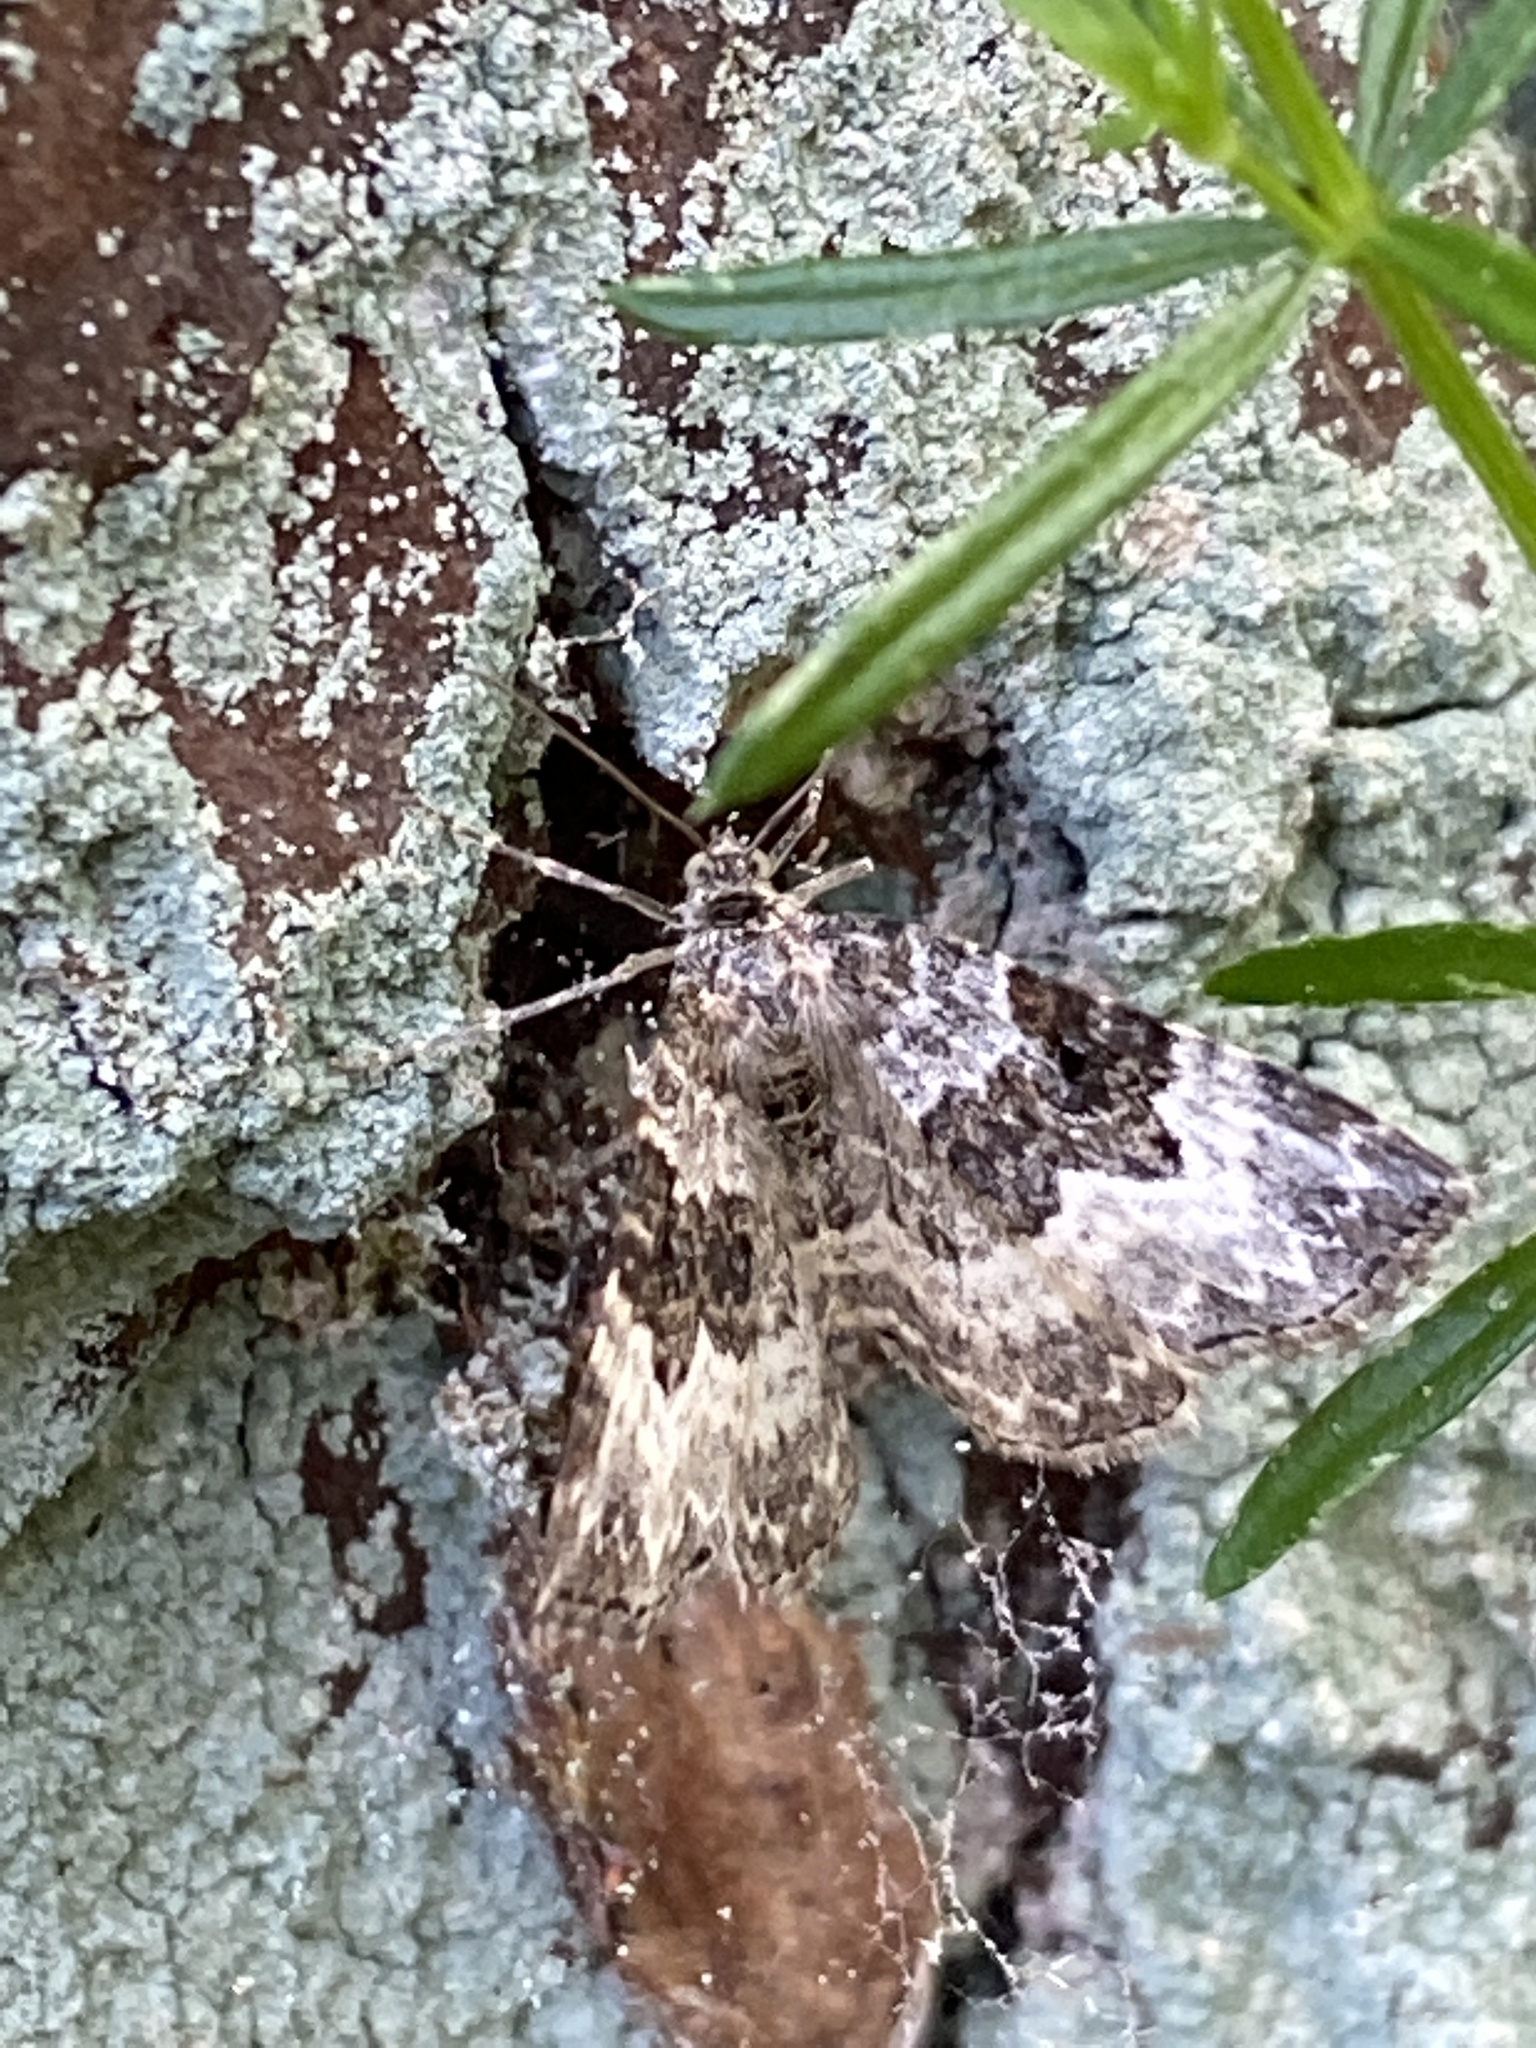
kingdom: Animalia
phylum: Arthropoda
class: Insecta
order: Lepidoptera
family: Geometridae
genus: Epirrhoe
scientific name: Epirrhoe alternata
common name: Common carpet
